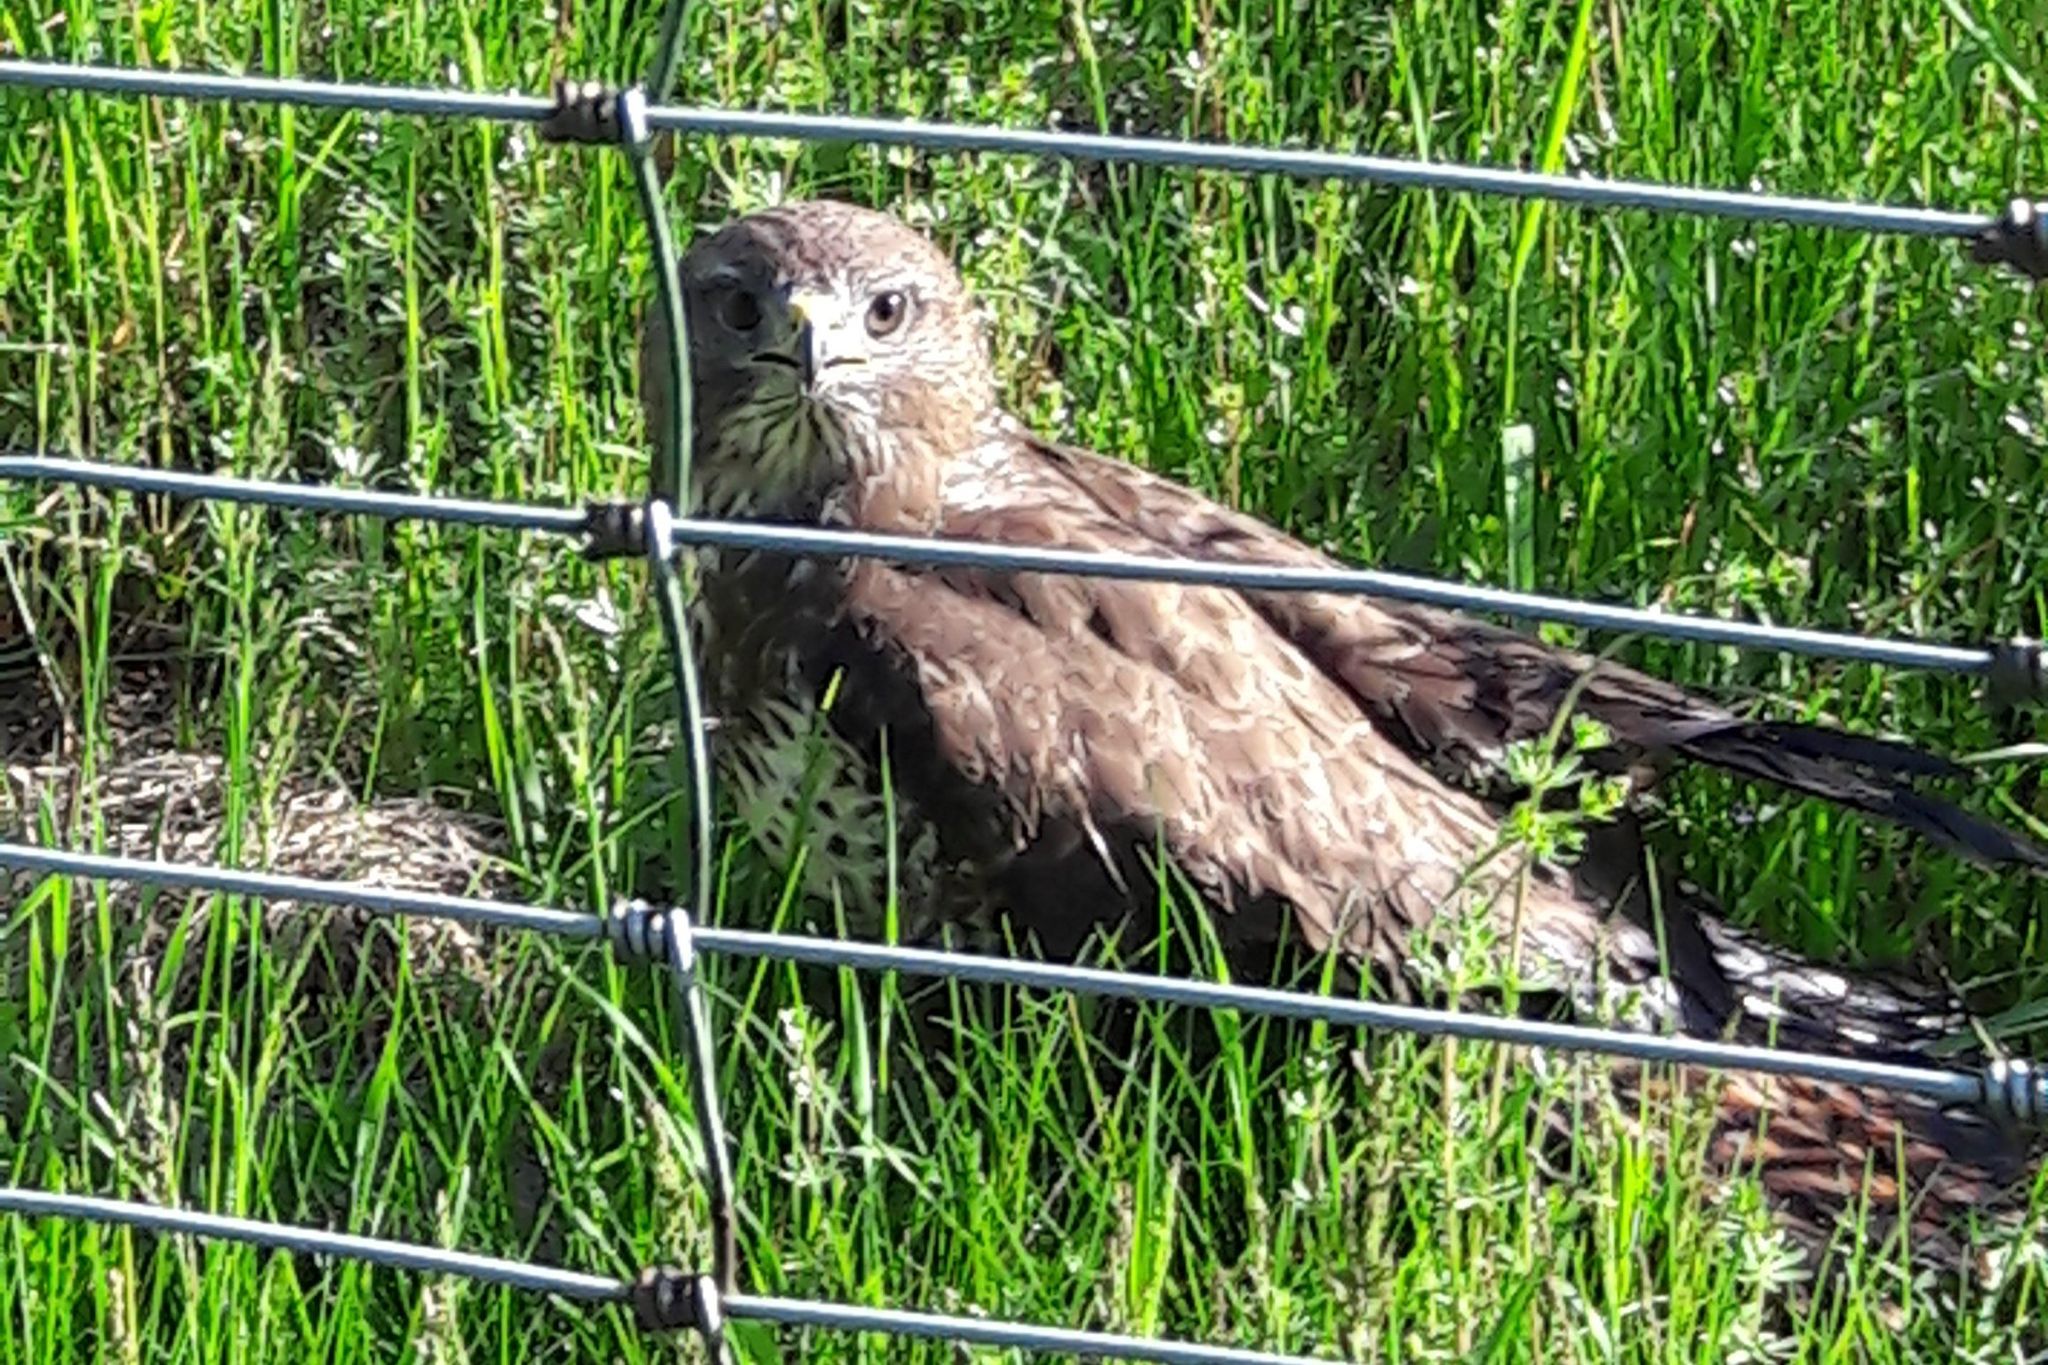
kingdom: Animalia
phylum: Chordata
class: Aves
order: Accipitriformes
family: Accipitridae
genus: Buteo
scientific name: Buteo buteo
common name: Common buzzard
